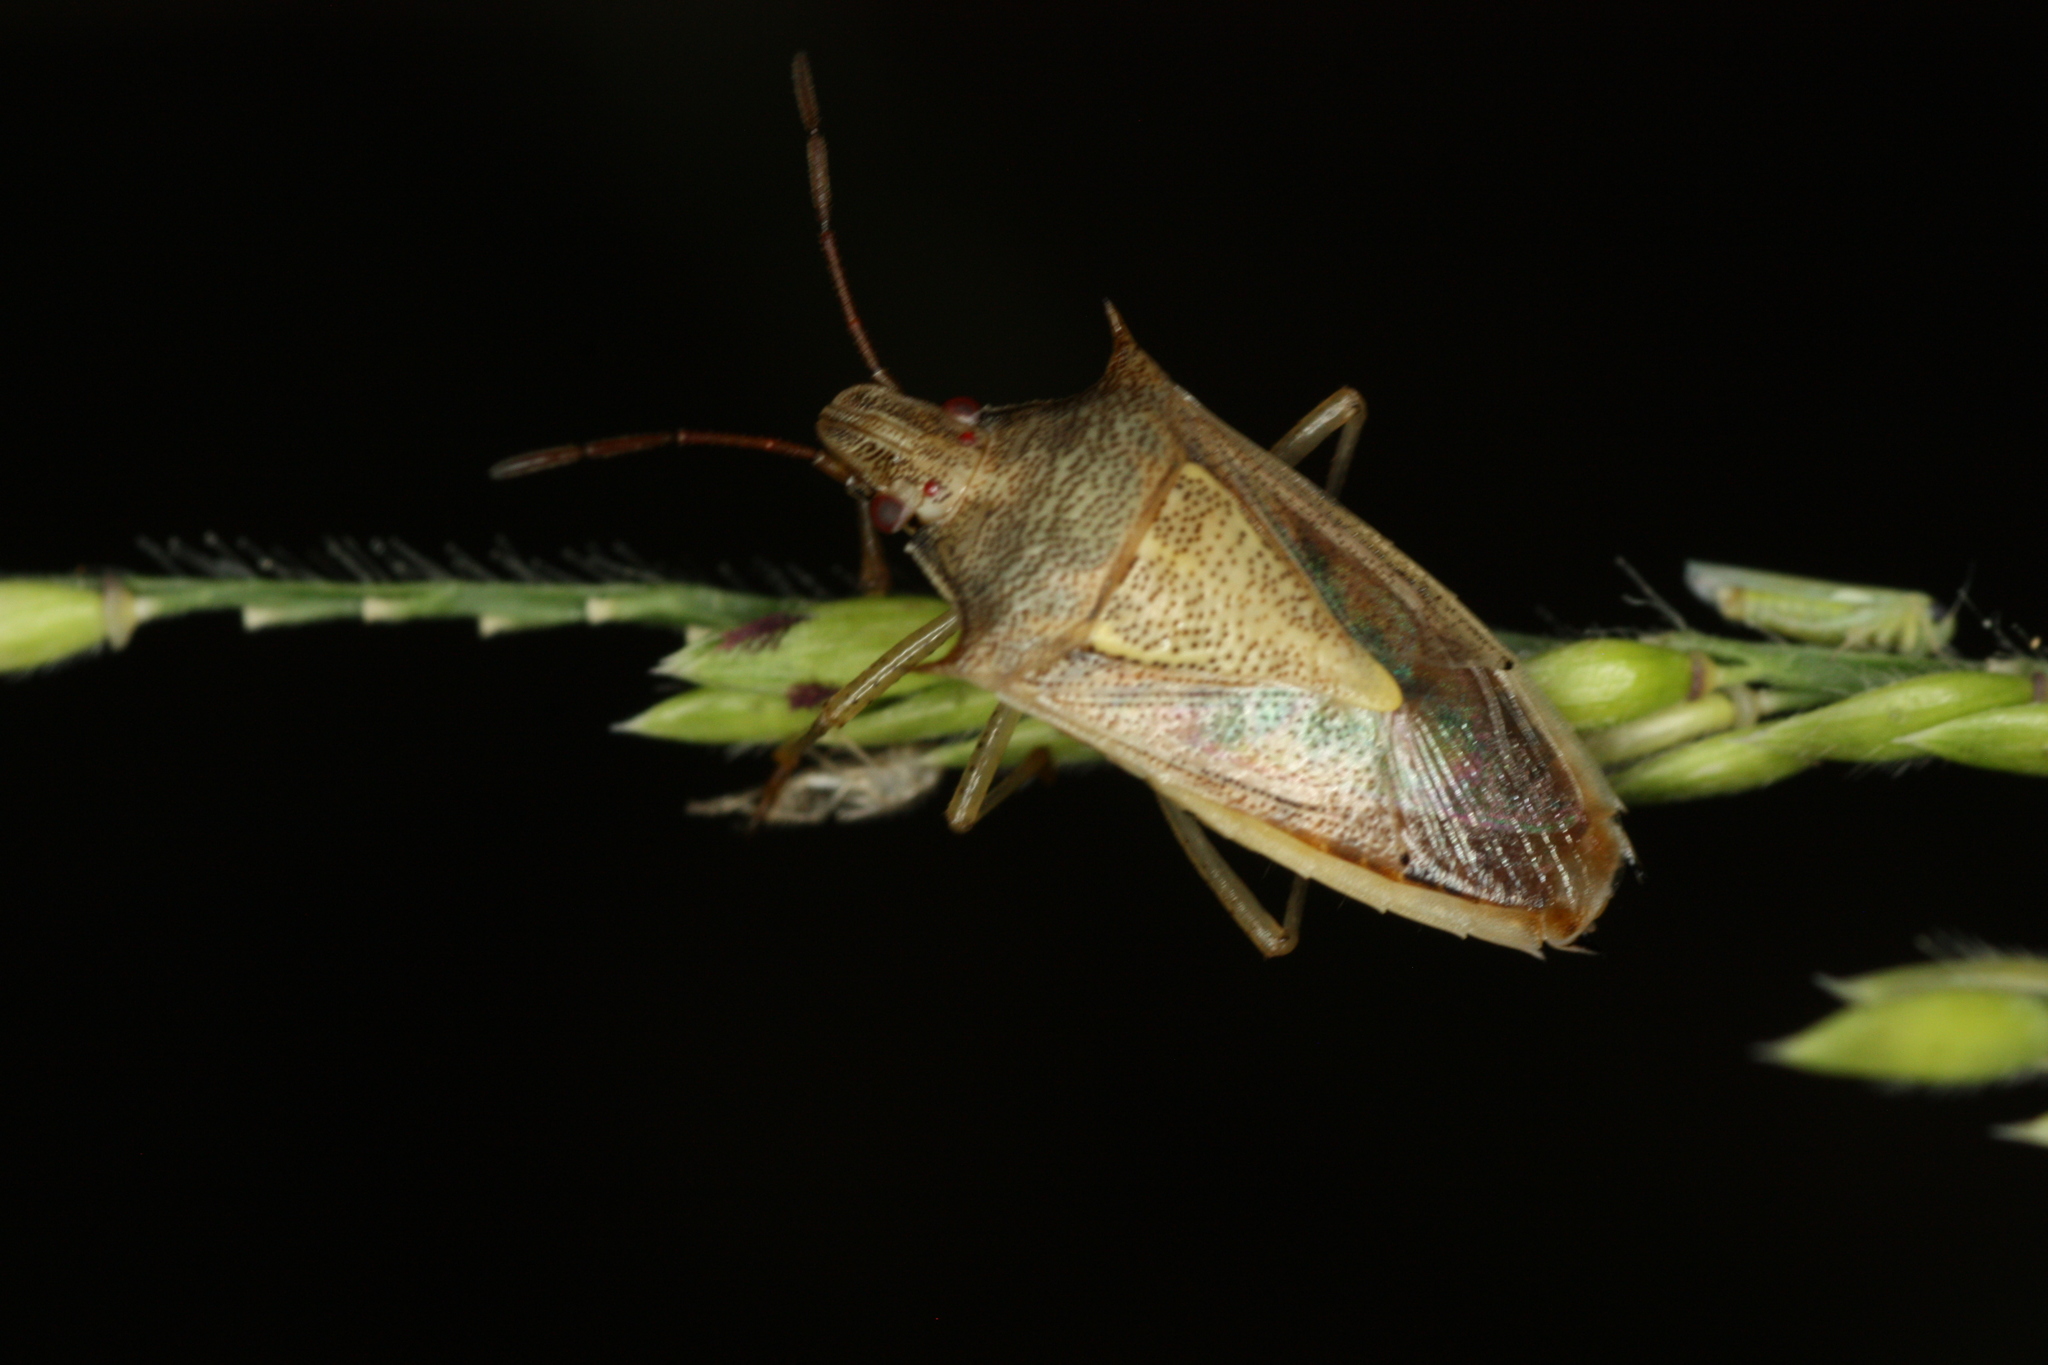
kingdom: Animalia
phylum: Arthropoda
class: Insecta
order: Hemiptera
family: Pentatomidae
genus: Oebalus
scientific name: Oebalus pugnax
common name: Rice stink bug
